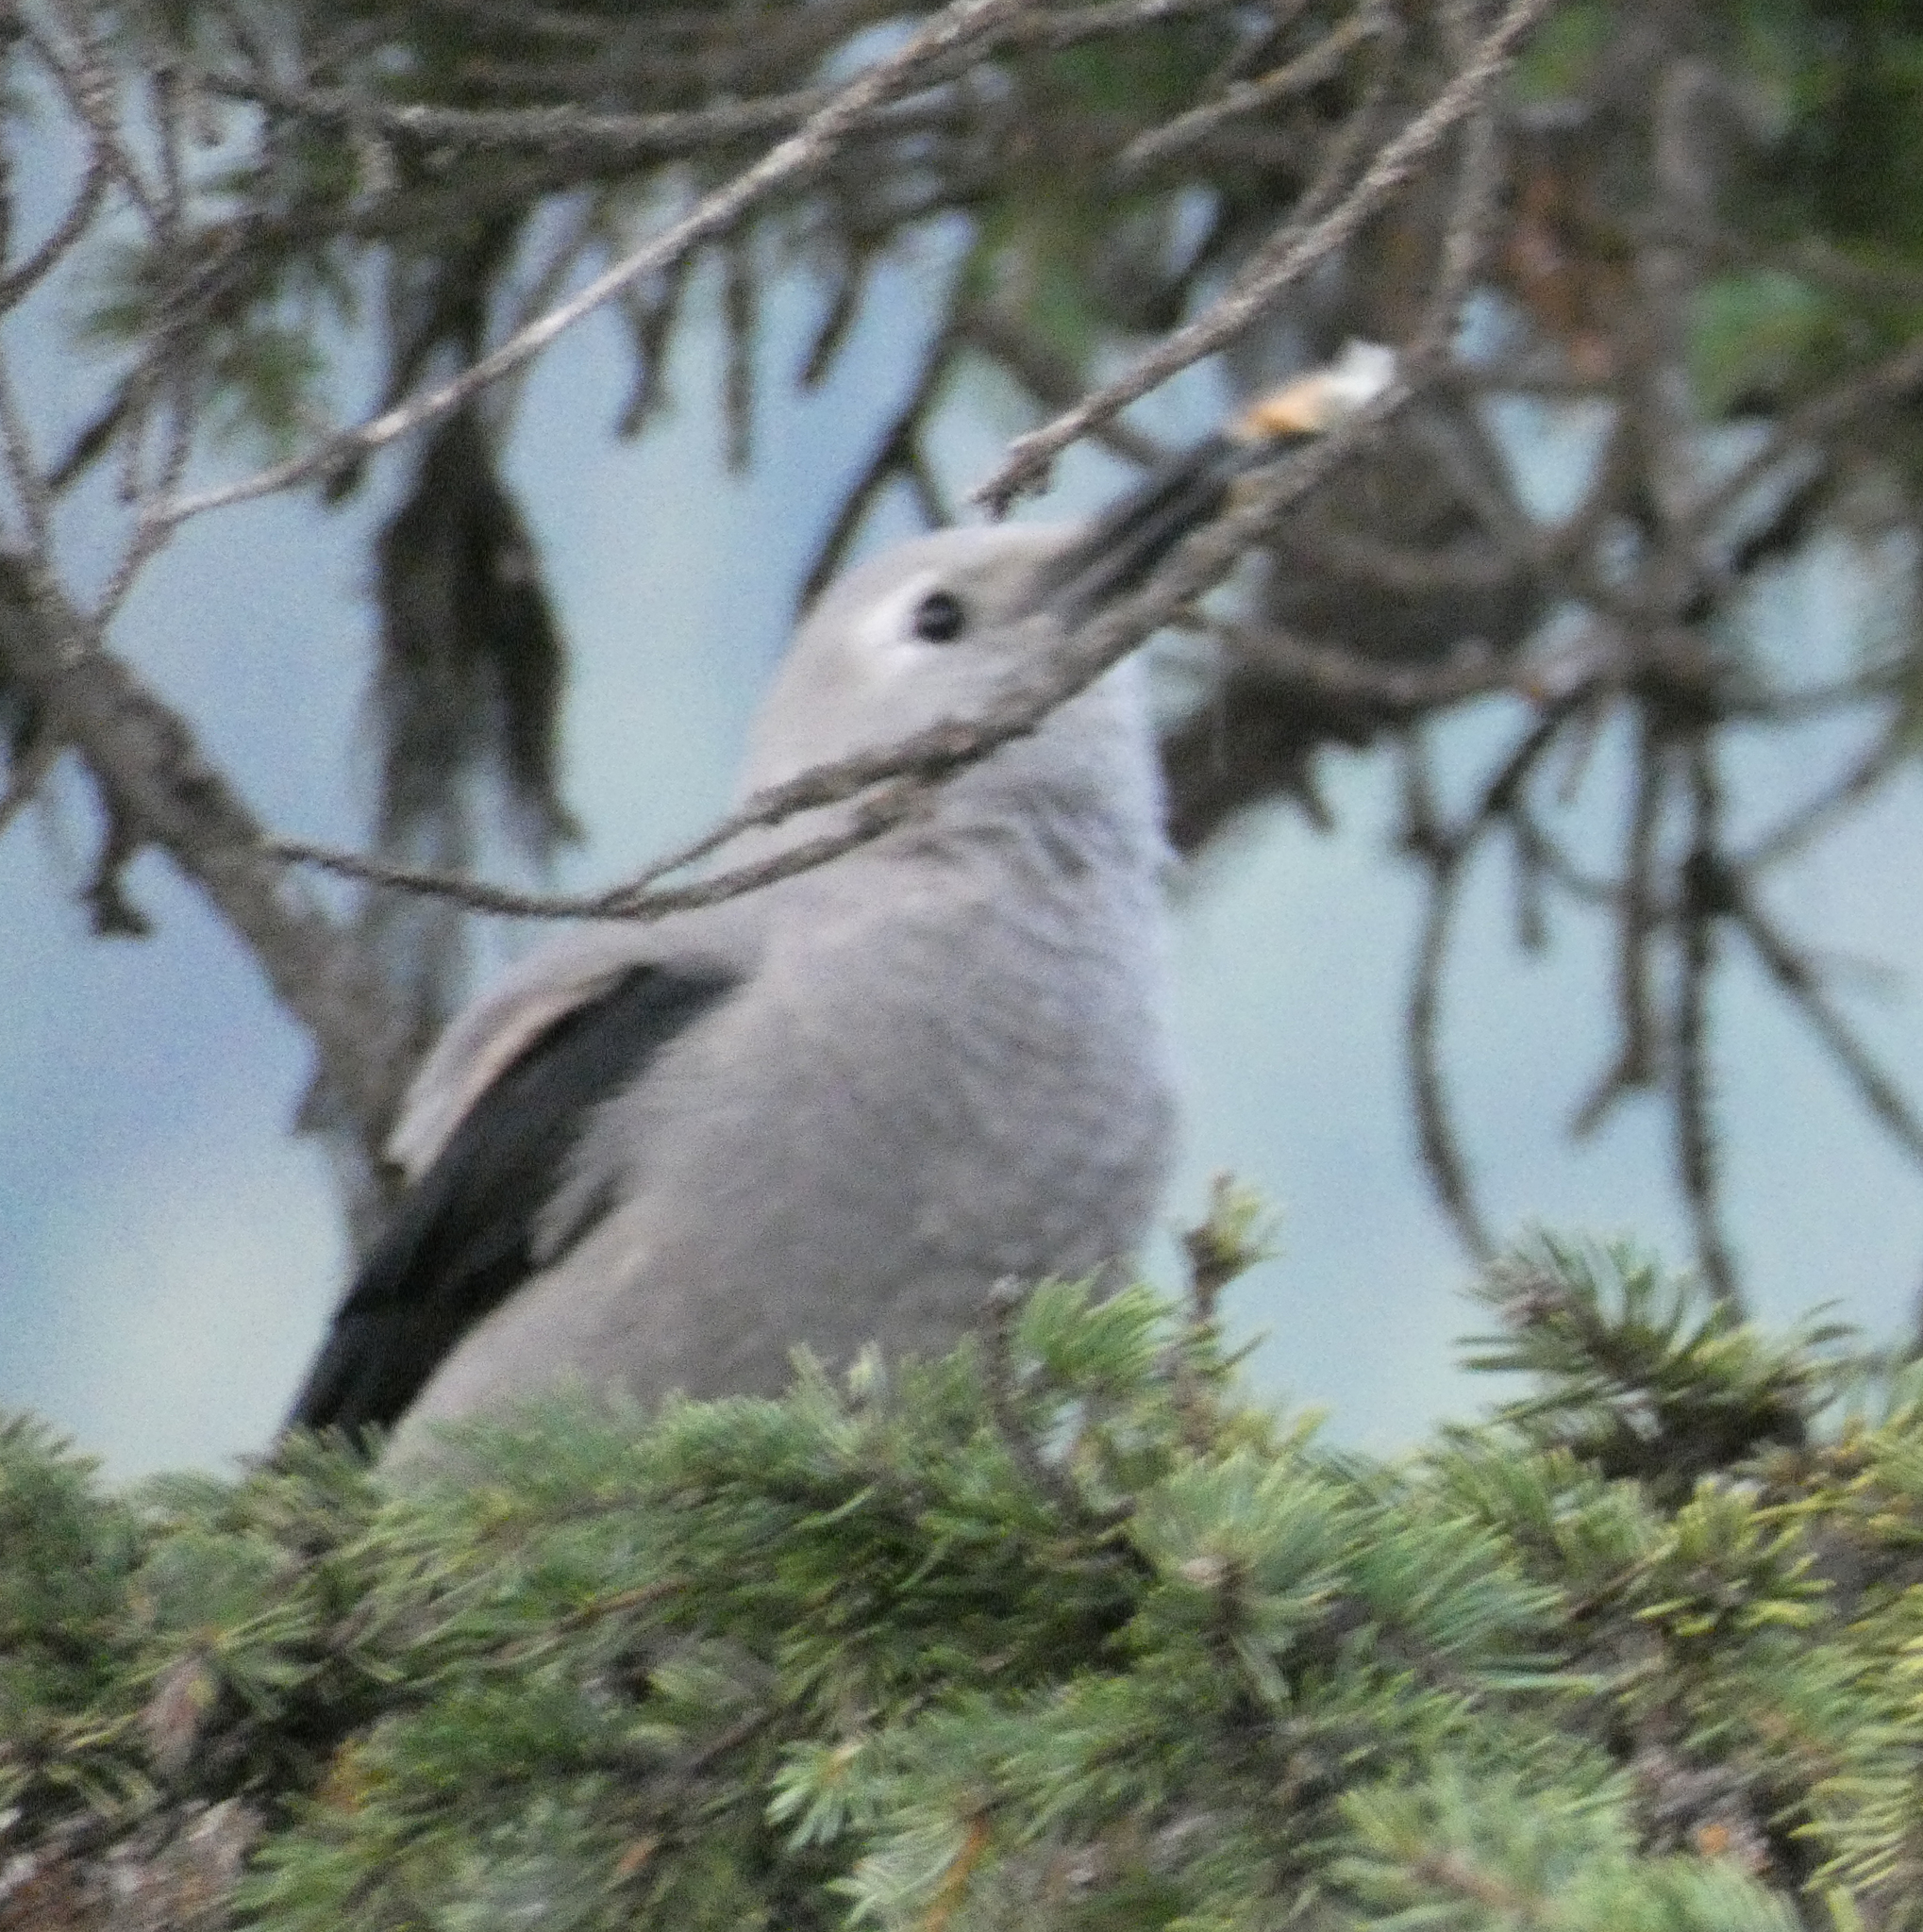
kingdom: Animalia
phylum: Chordata
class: Aves
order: Passeriformes
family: Corvidae
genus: Nucifraga
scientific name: Nucifraga columbiana
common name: Clark's nutcracker
